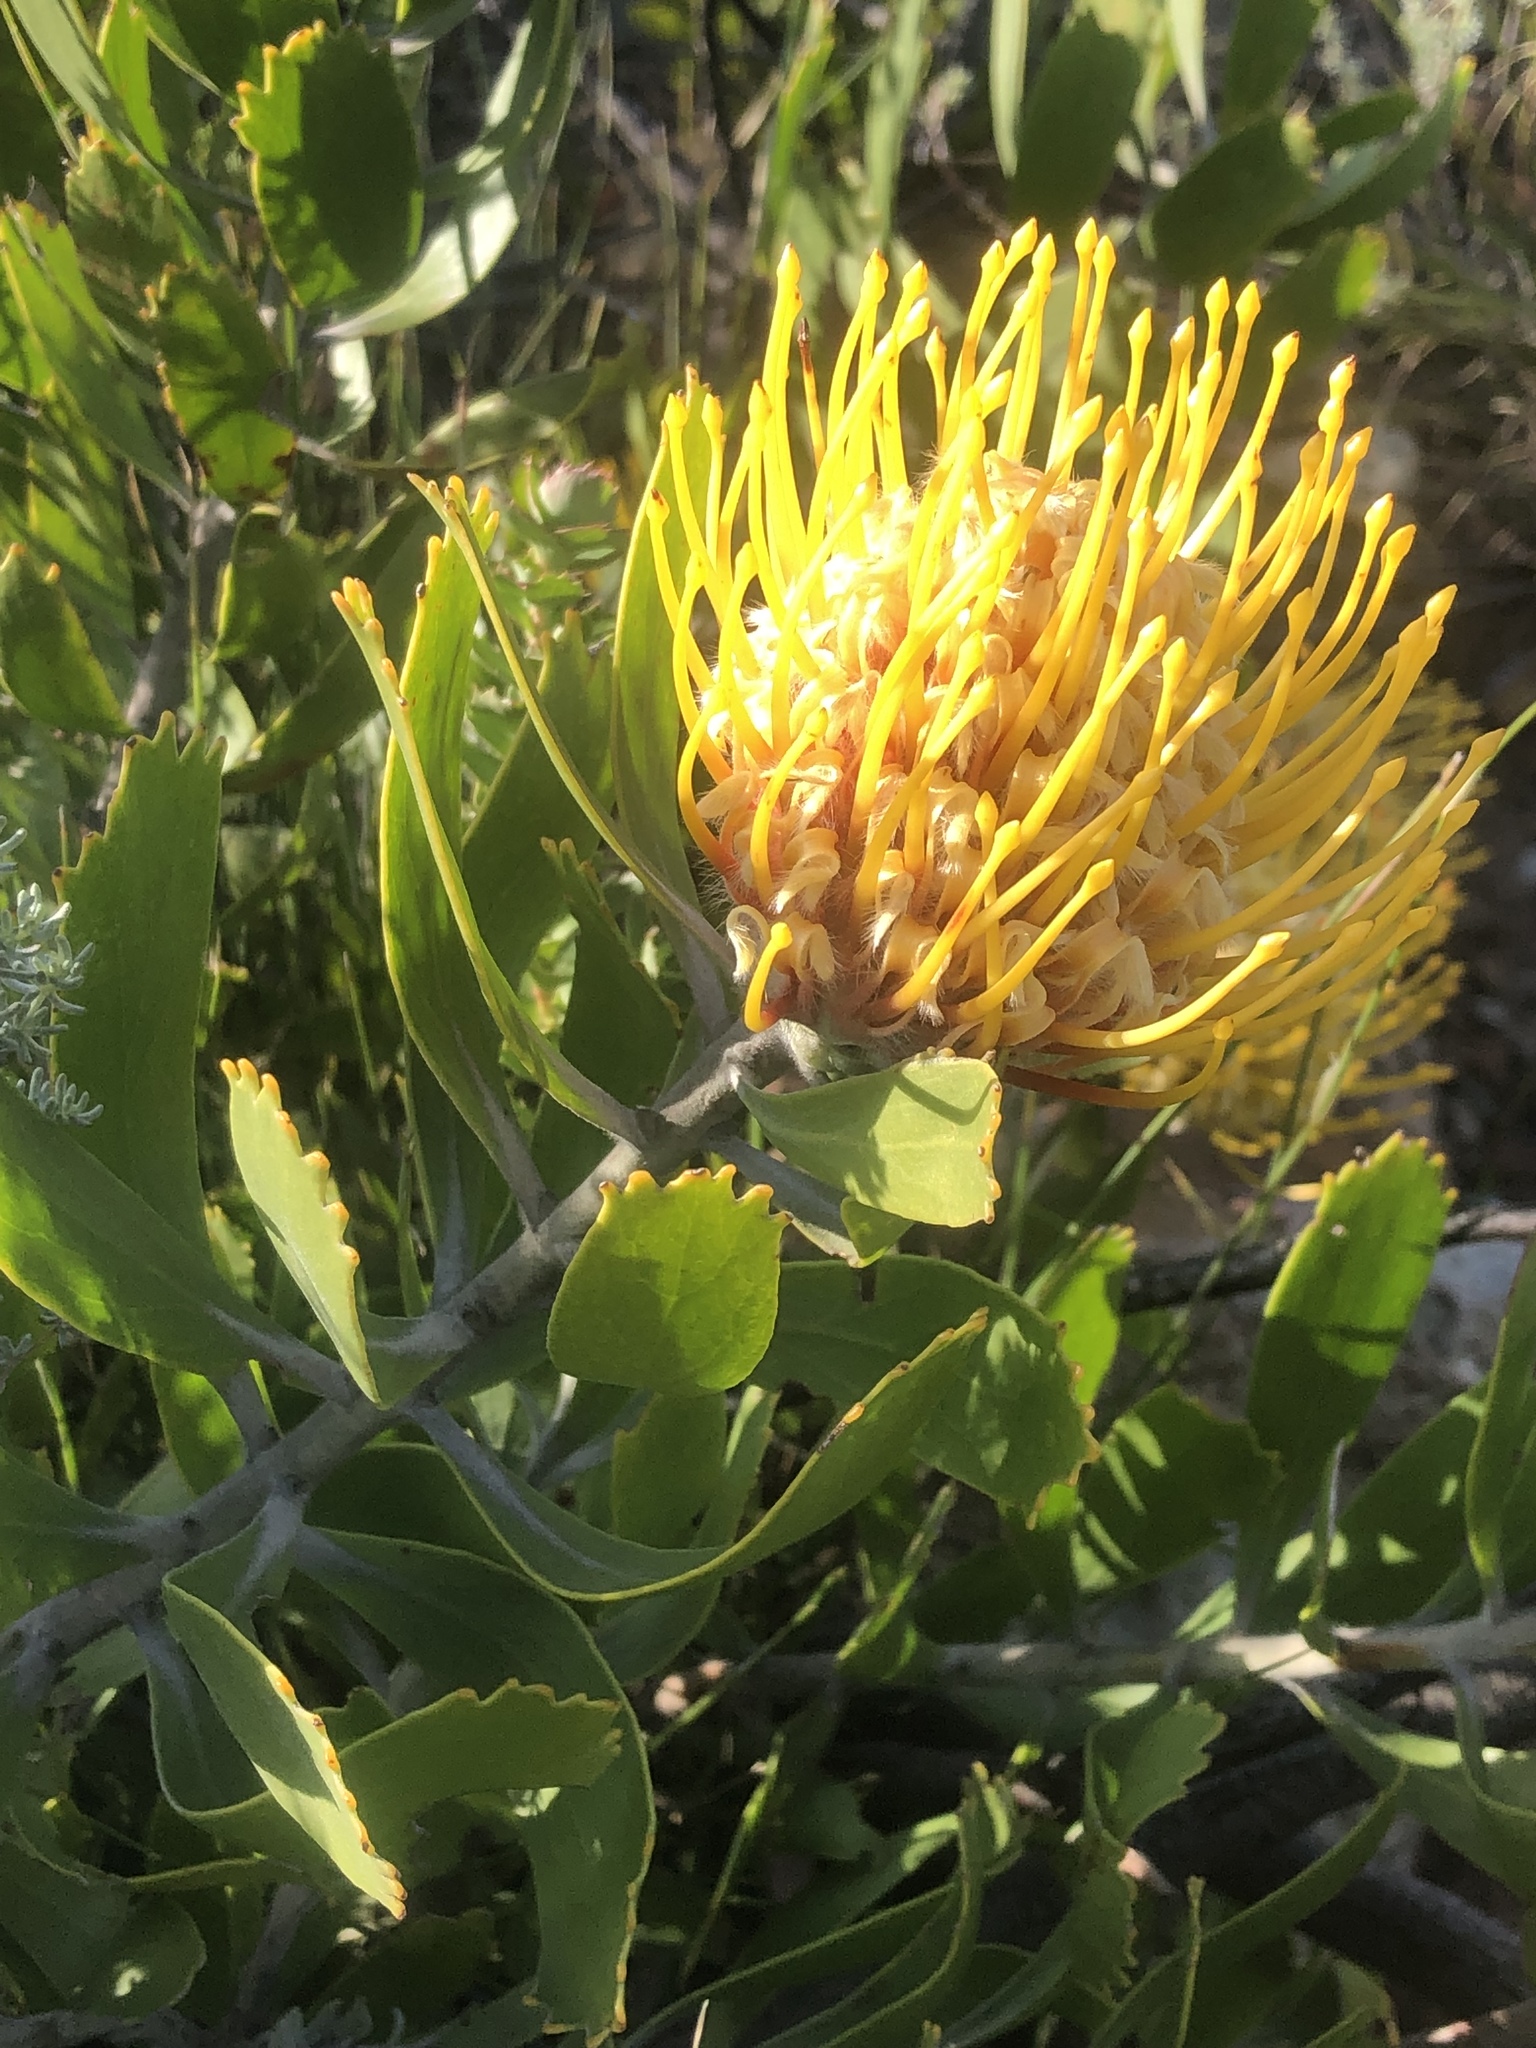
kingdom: Plantae
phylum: Tracheophyta
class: Magnoliopsida
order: Proteales
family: Proteaceae
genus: Leucospermum
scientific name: Leucospermum cuneiforme
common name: Common pincushion
